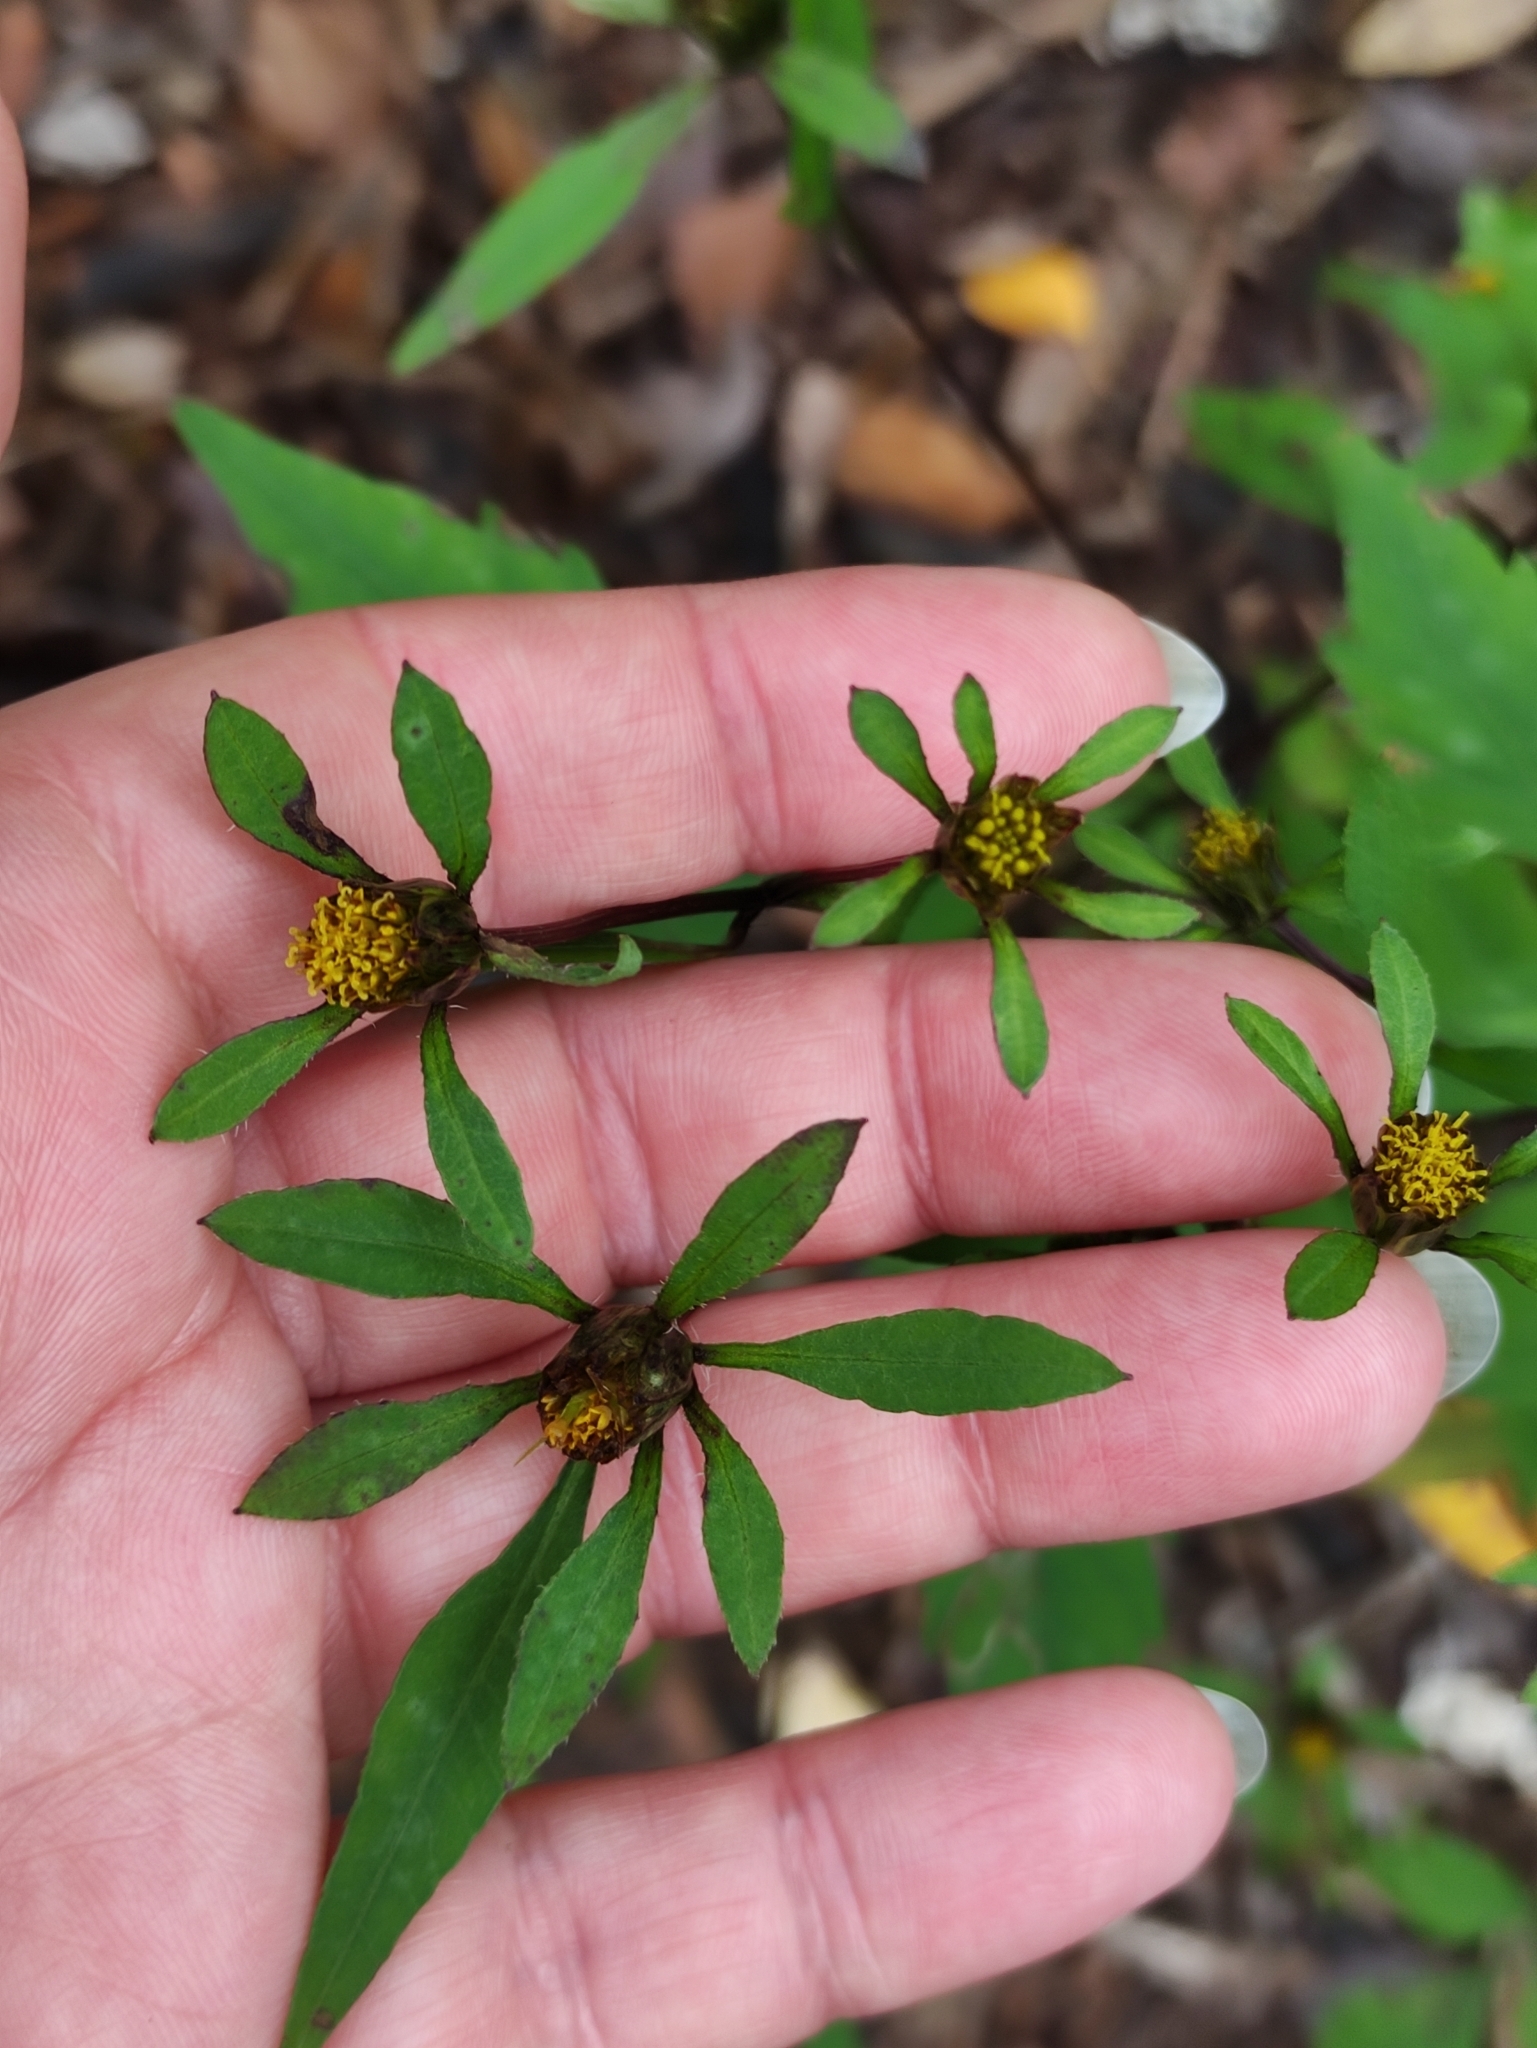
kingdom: Plantae
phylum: Tracheophyta
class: Magnoliopsida
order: Asterales
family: Asteraceae
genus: Bidens
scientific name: Bidens frondosa
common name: Beggarticks
